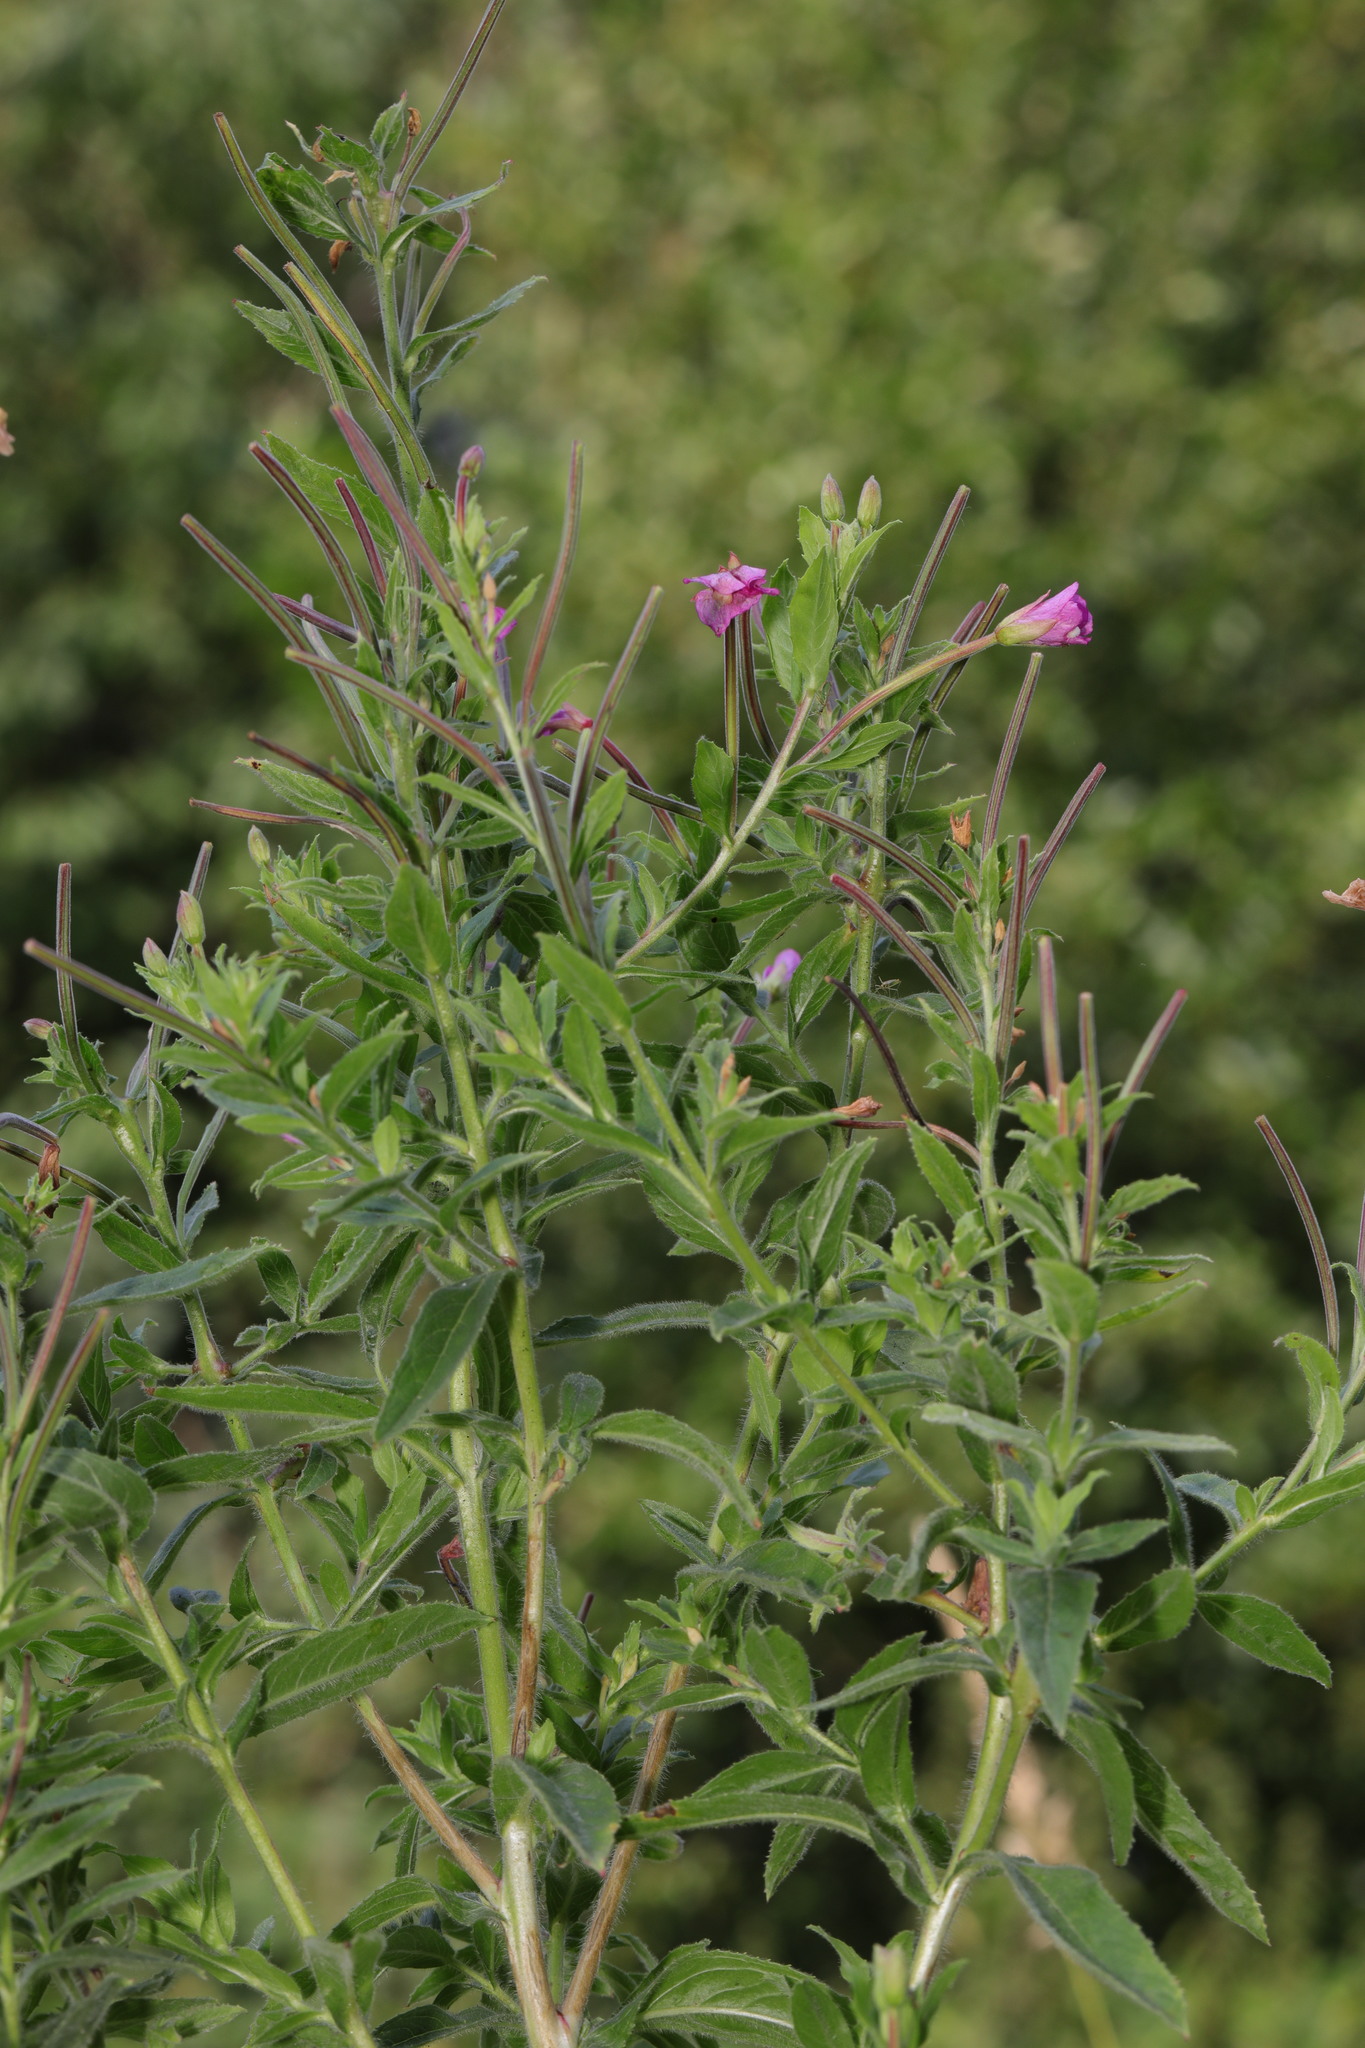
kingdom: Plantae
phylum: Tracheophyta
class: Magnoliopsida
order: Myrtales
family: Onagraceae
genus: Epilobium
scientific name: Epilobium hirsutum
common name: Great willowherb
